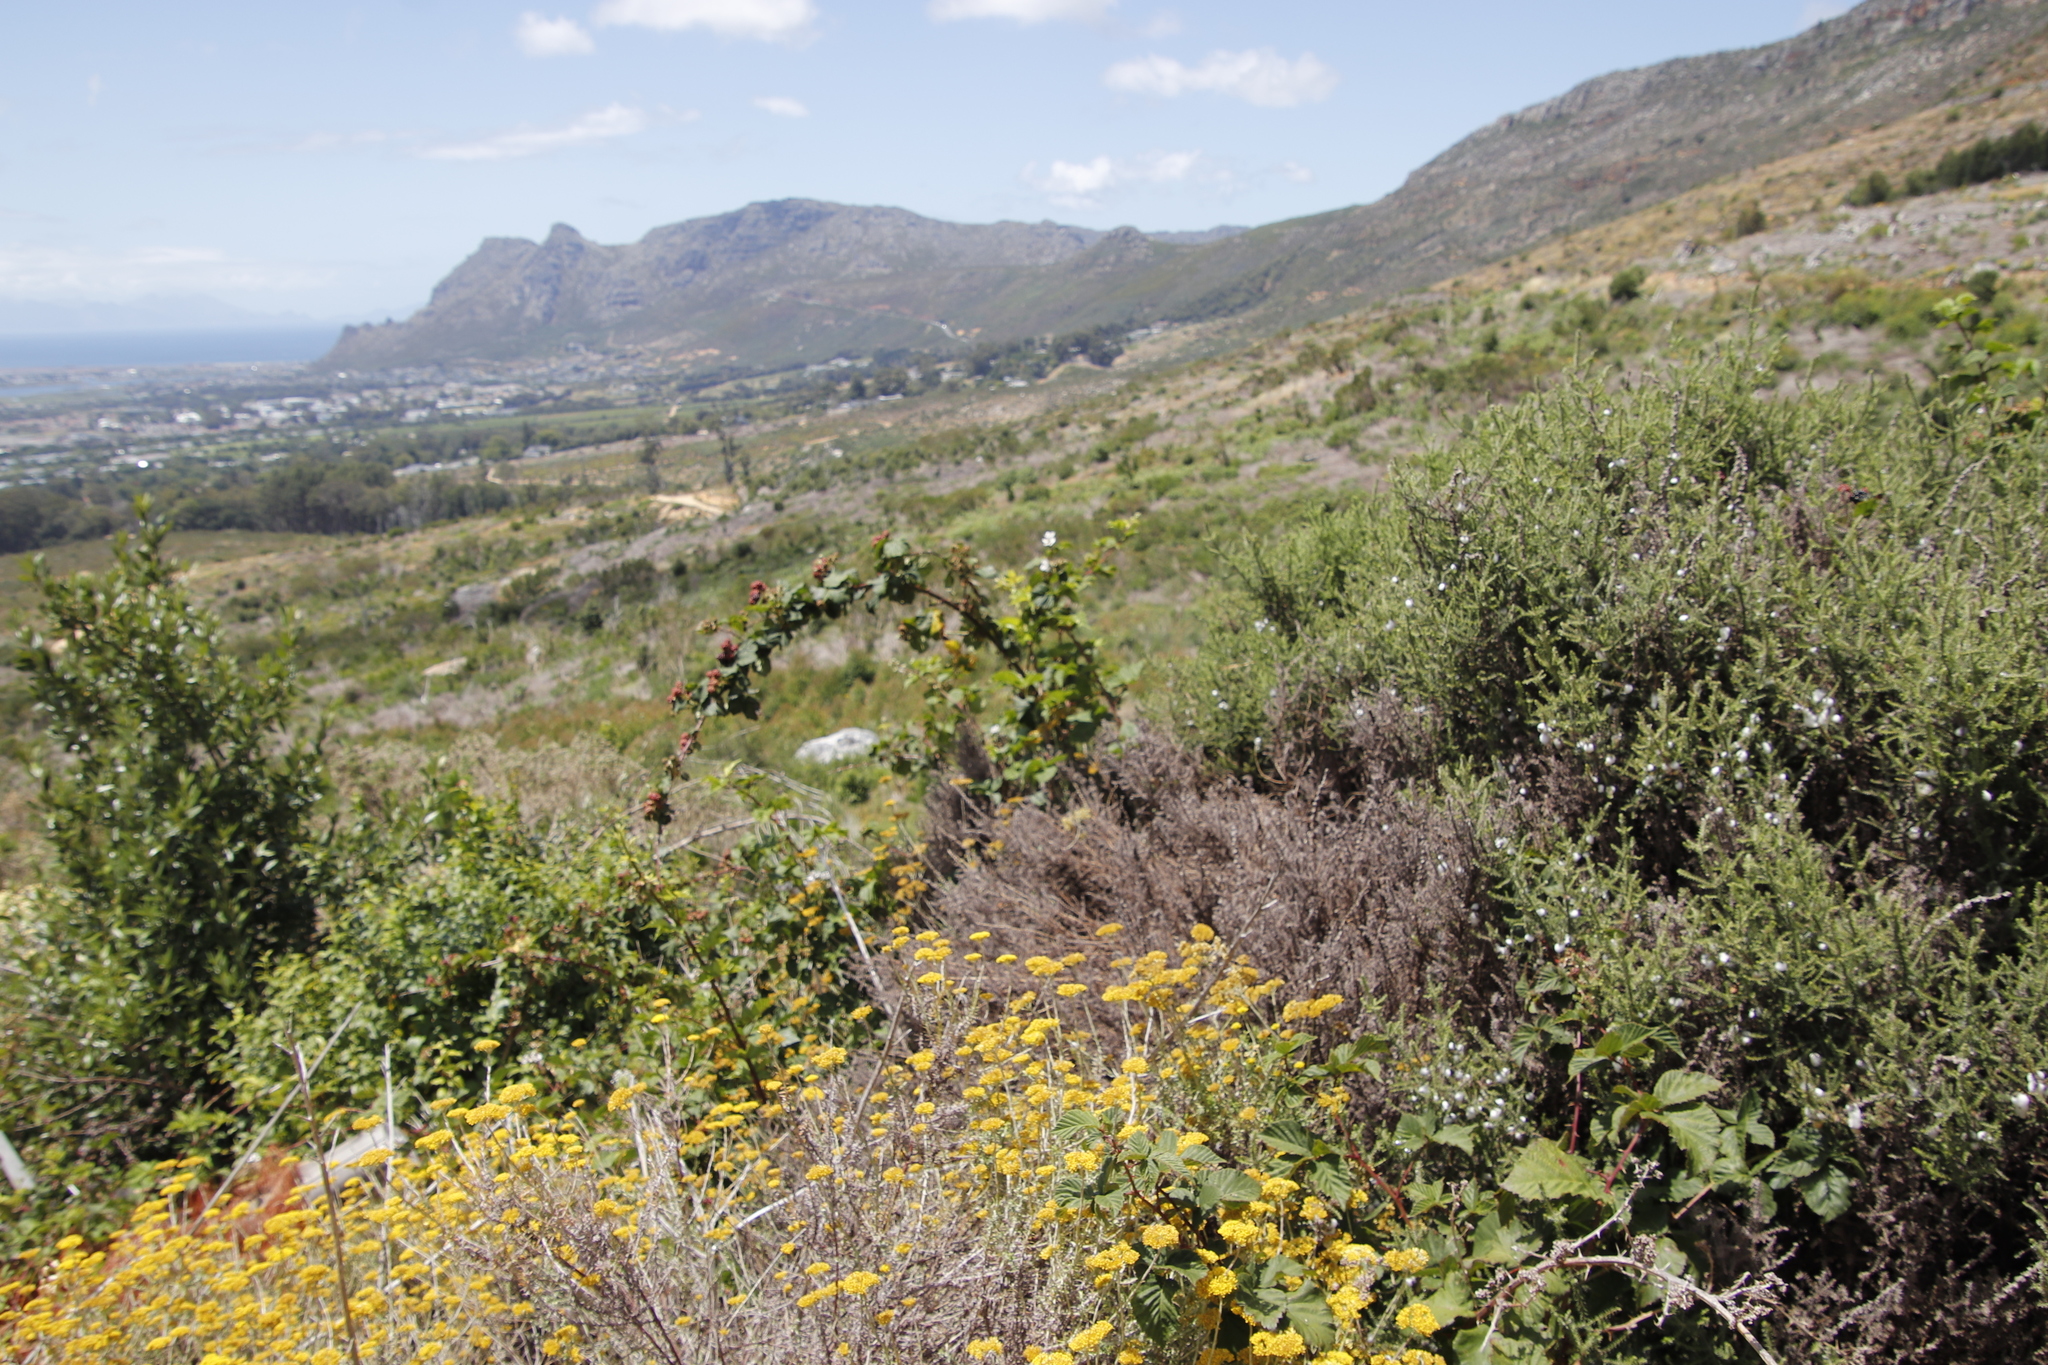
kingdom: Plantae
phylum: Tracheophyta
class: Magnoliopsida
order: Rosales
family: Rosaceae
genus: Rubus
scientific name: Rubus affinis
